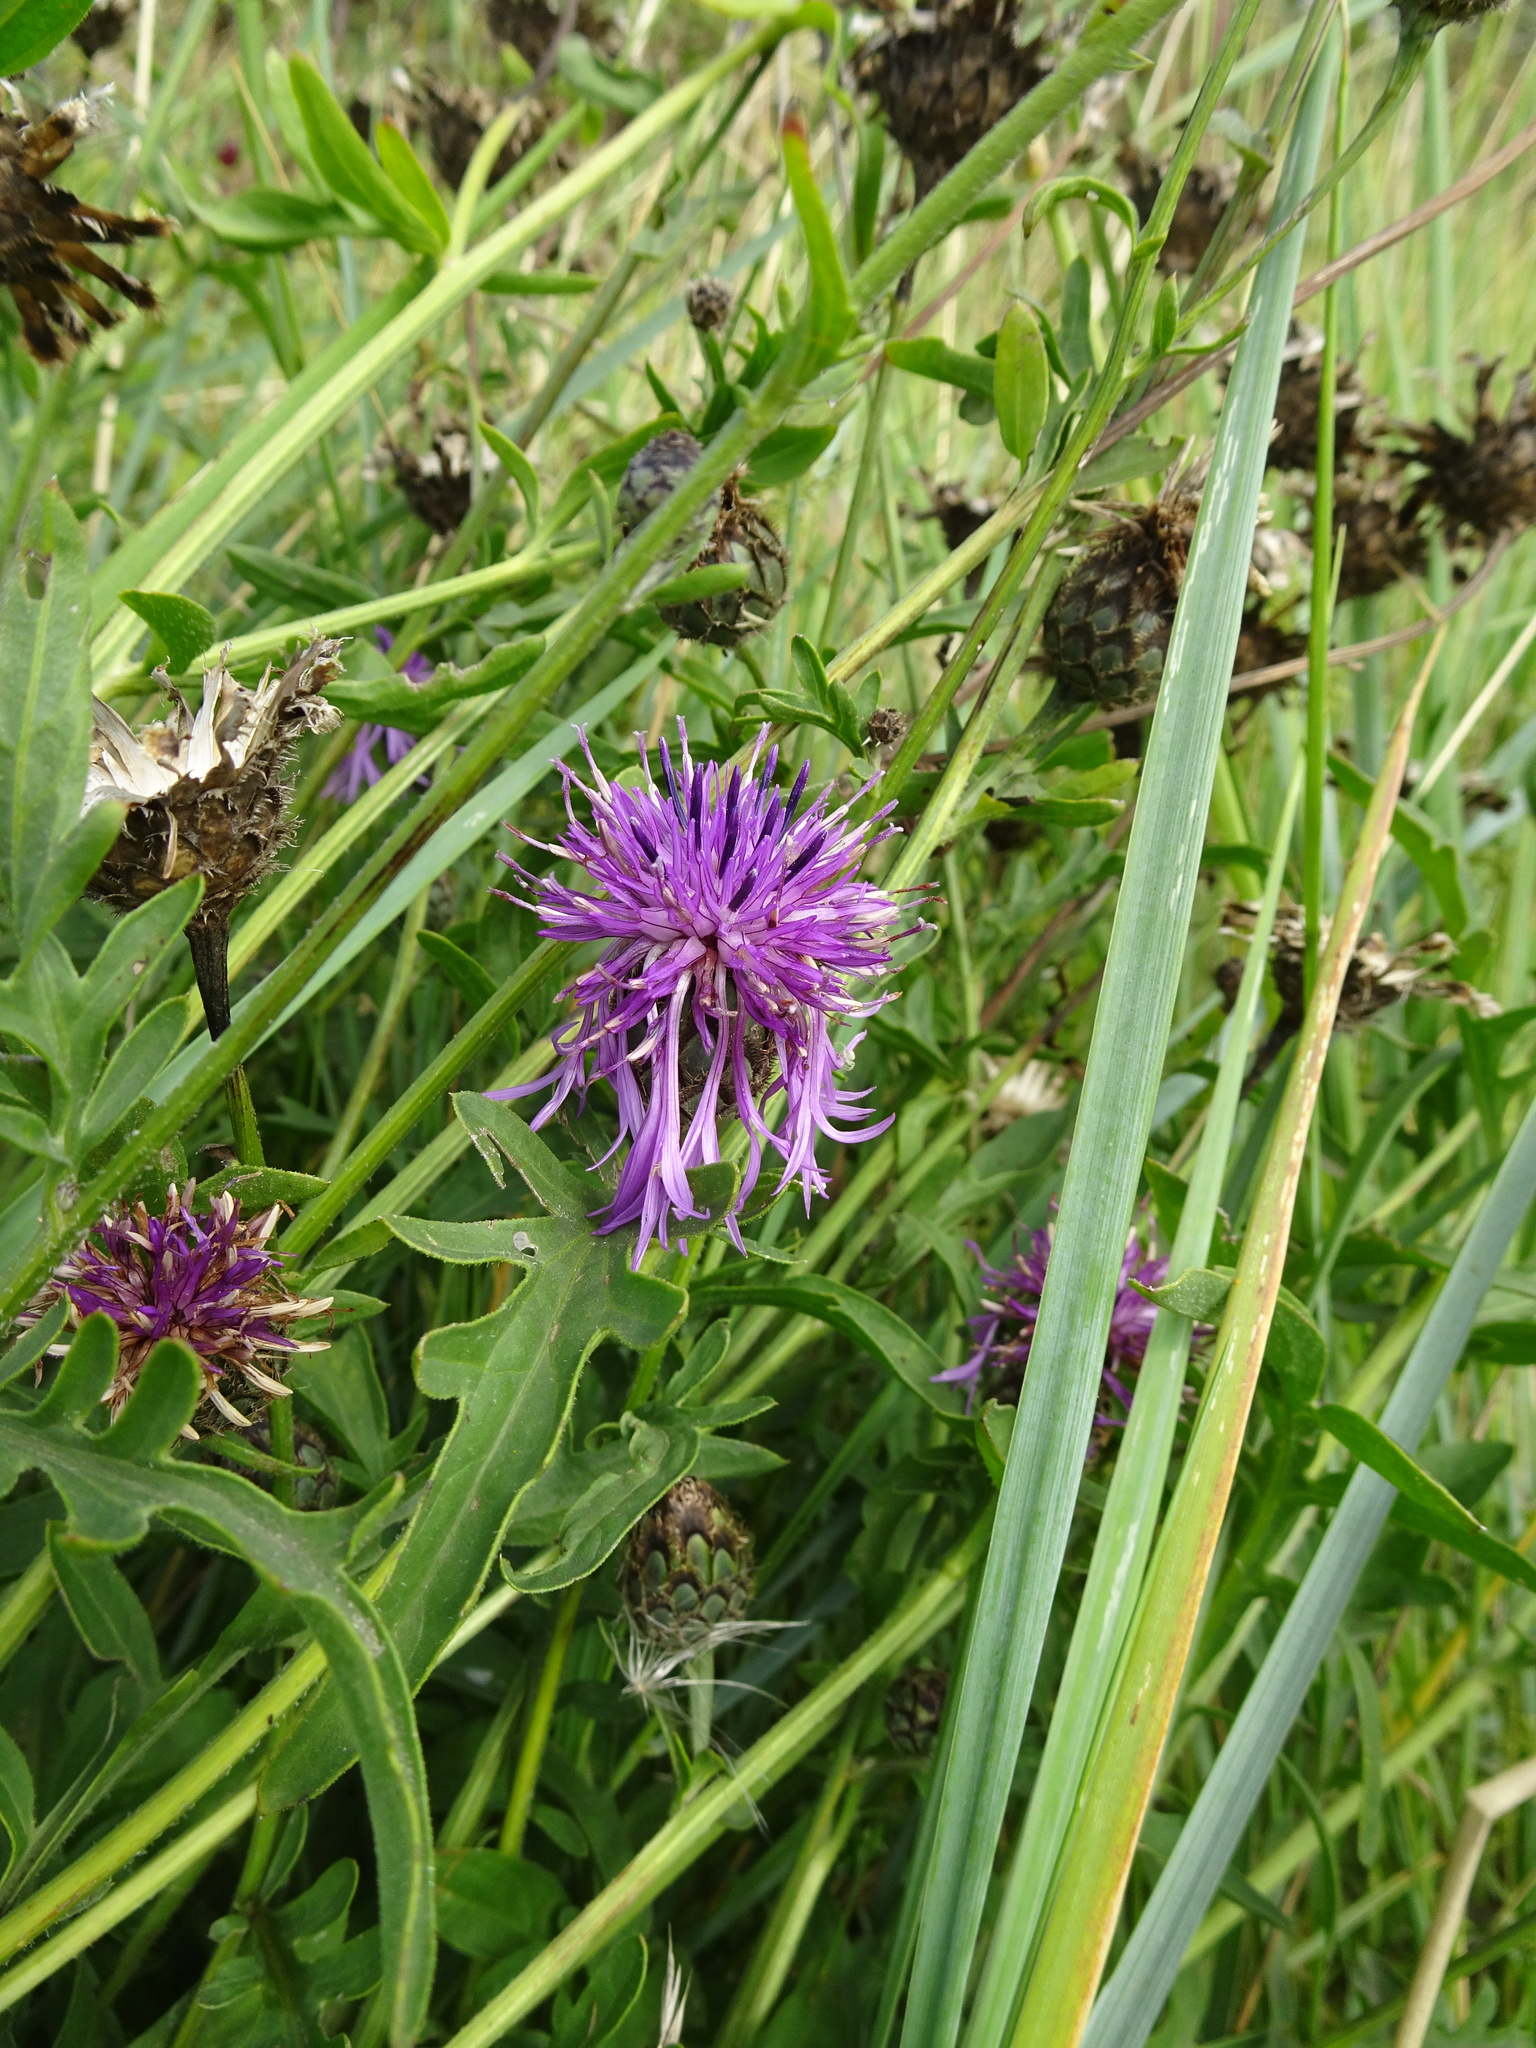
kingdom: Plantae
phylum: Tracheophyta
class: Magnoliopsida
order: Asterales
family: Asteraceae
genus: Centaurea
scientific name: Centaurea scabiosa
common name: Greater knapweed
